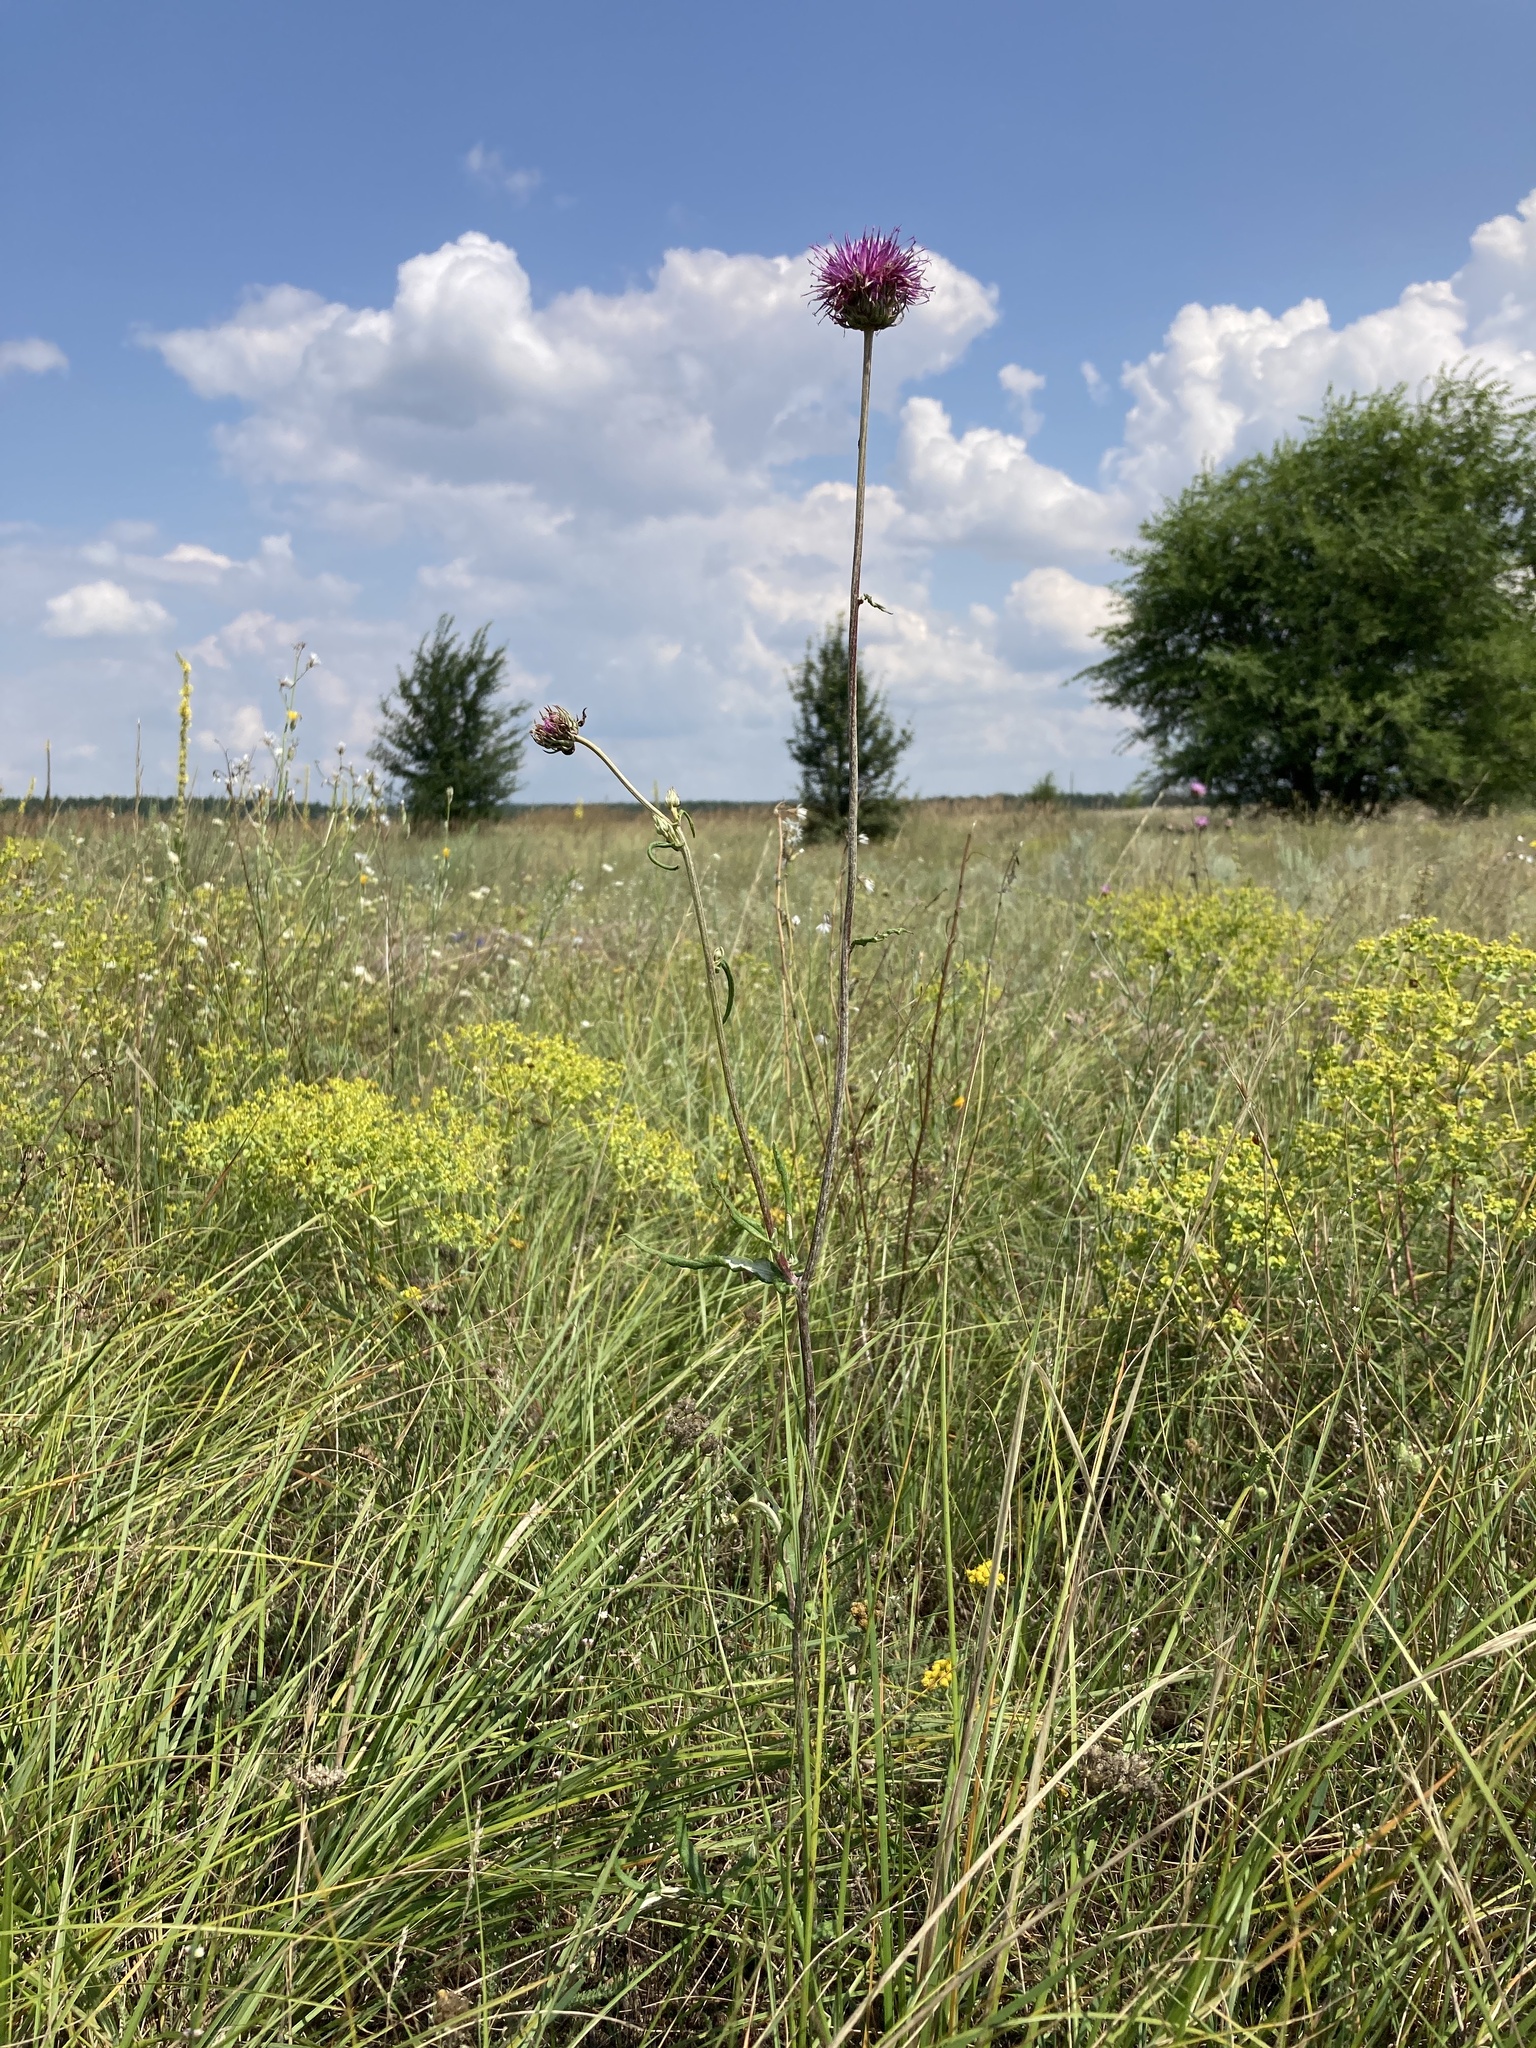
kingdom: Plantae
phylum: Tracheophyta
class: Magnoliopsida
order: Asterales
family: Asteraceae
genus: Jurinea
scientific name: Jurinea cyanoides
